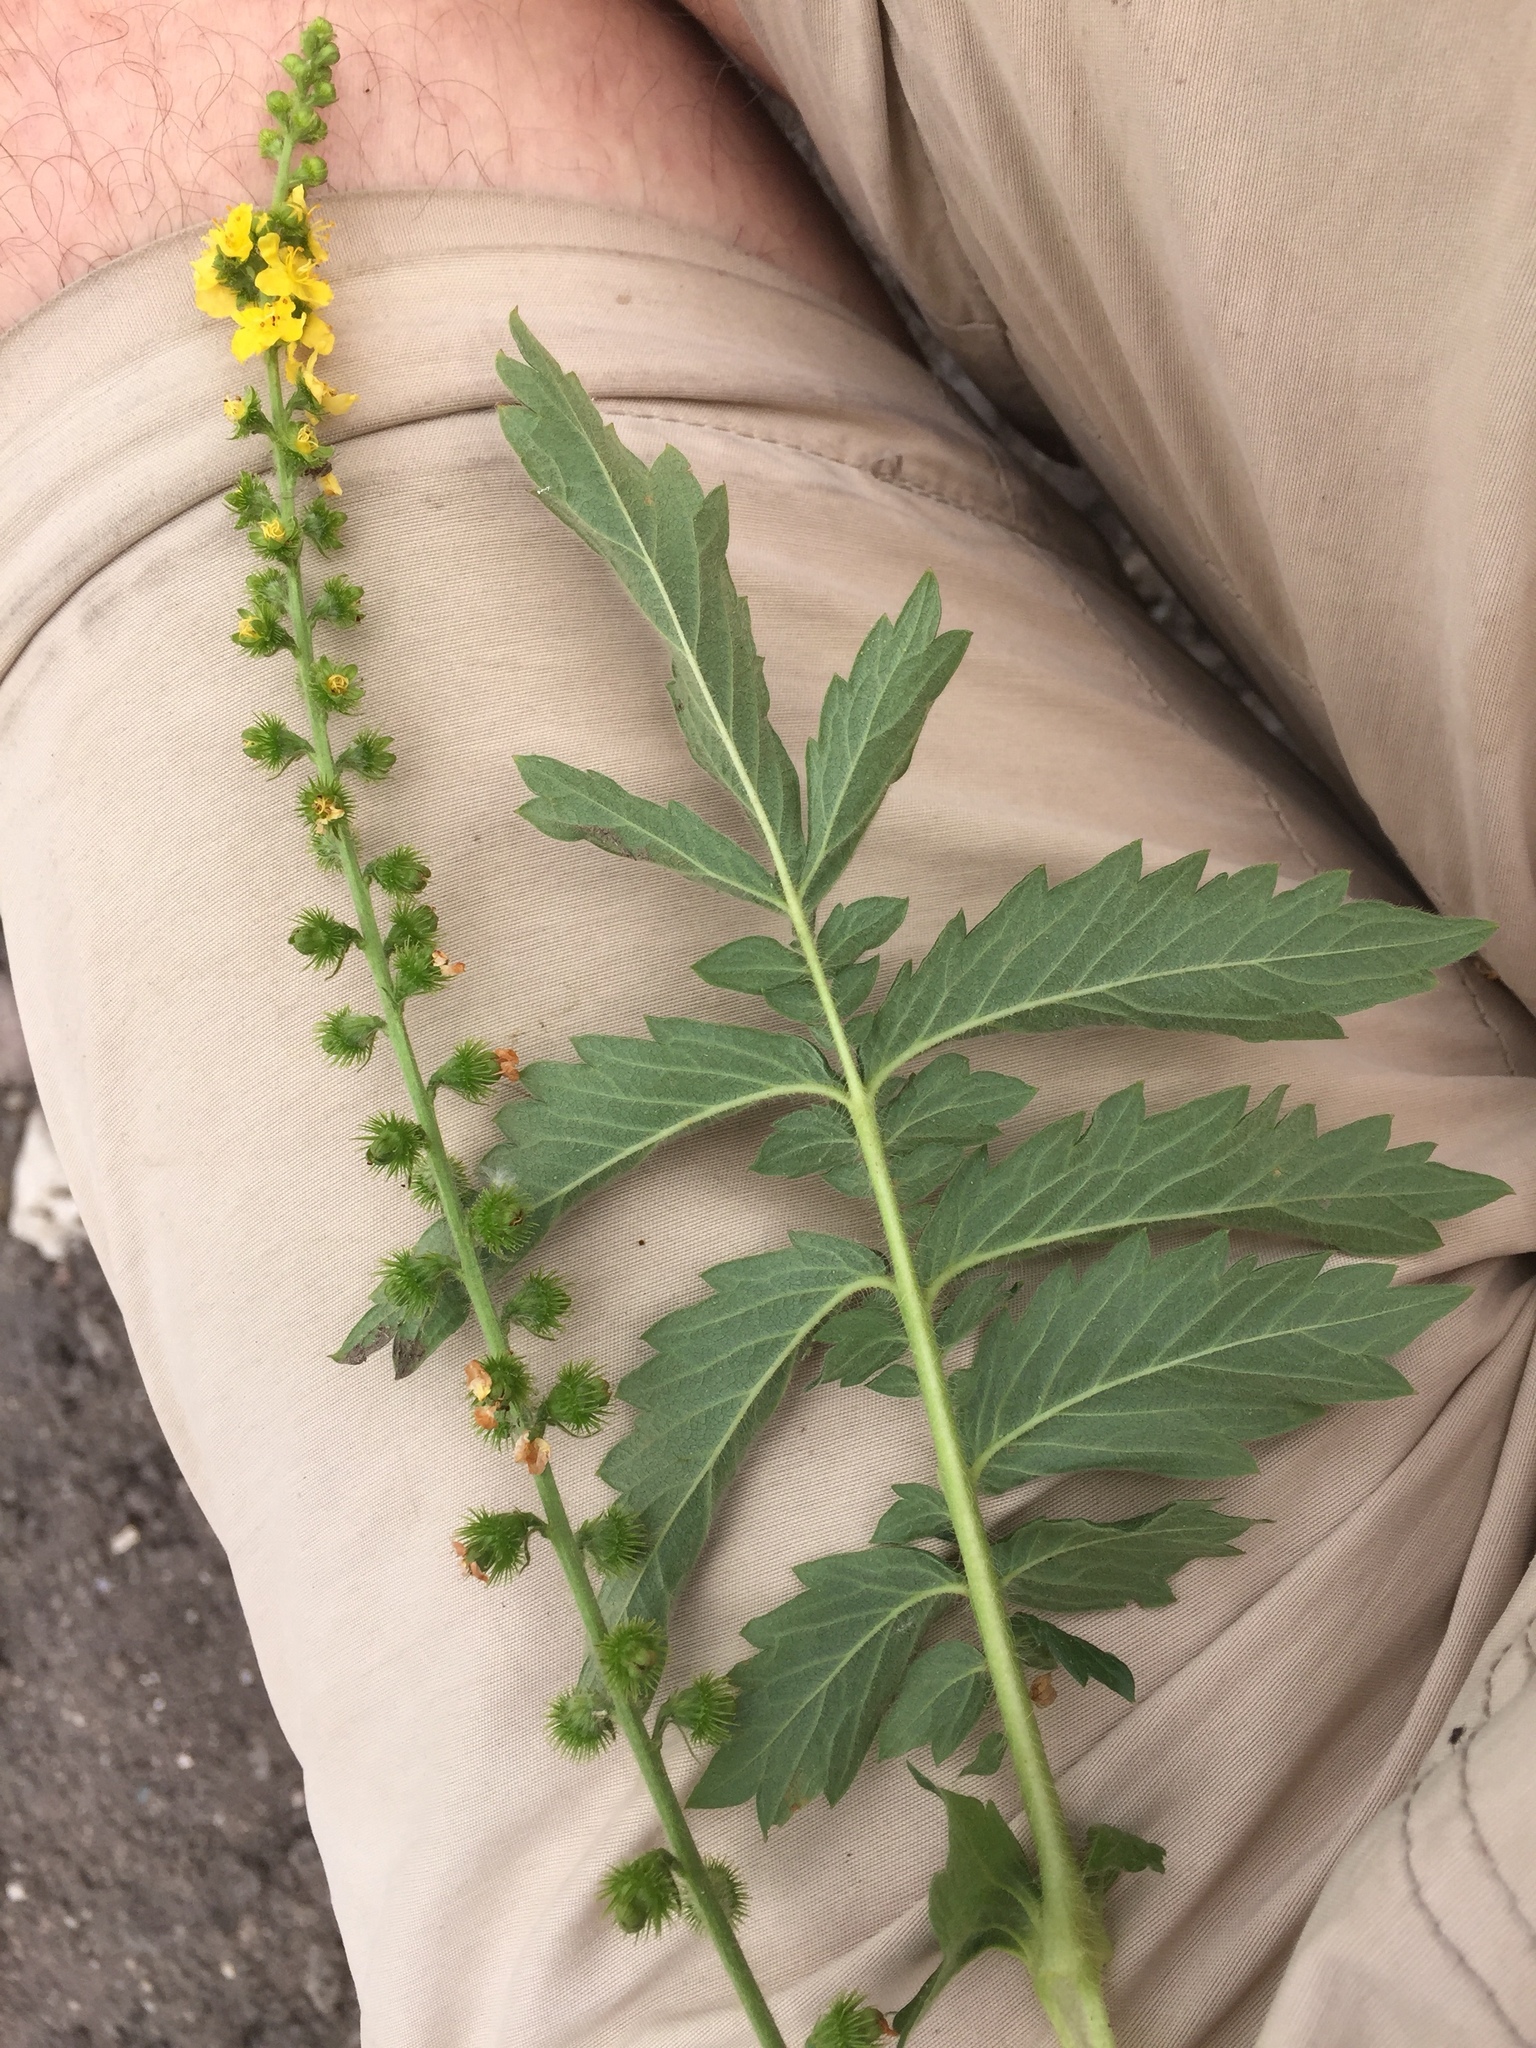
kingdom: Plantae
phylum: Tracheophyta
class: Magnoliopsida
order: Rosales
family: Rosaceae
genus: Agrimonia
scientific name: Agrimonia eupatoria
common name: Agrimony
